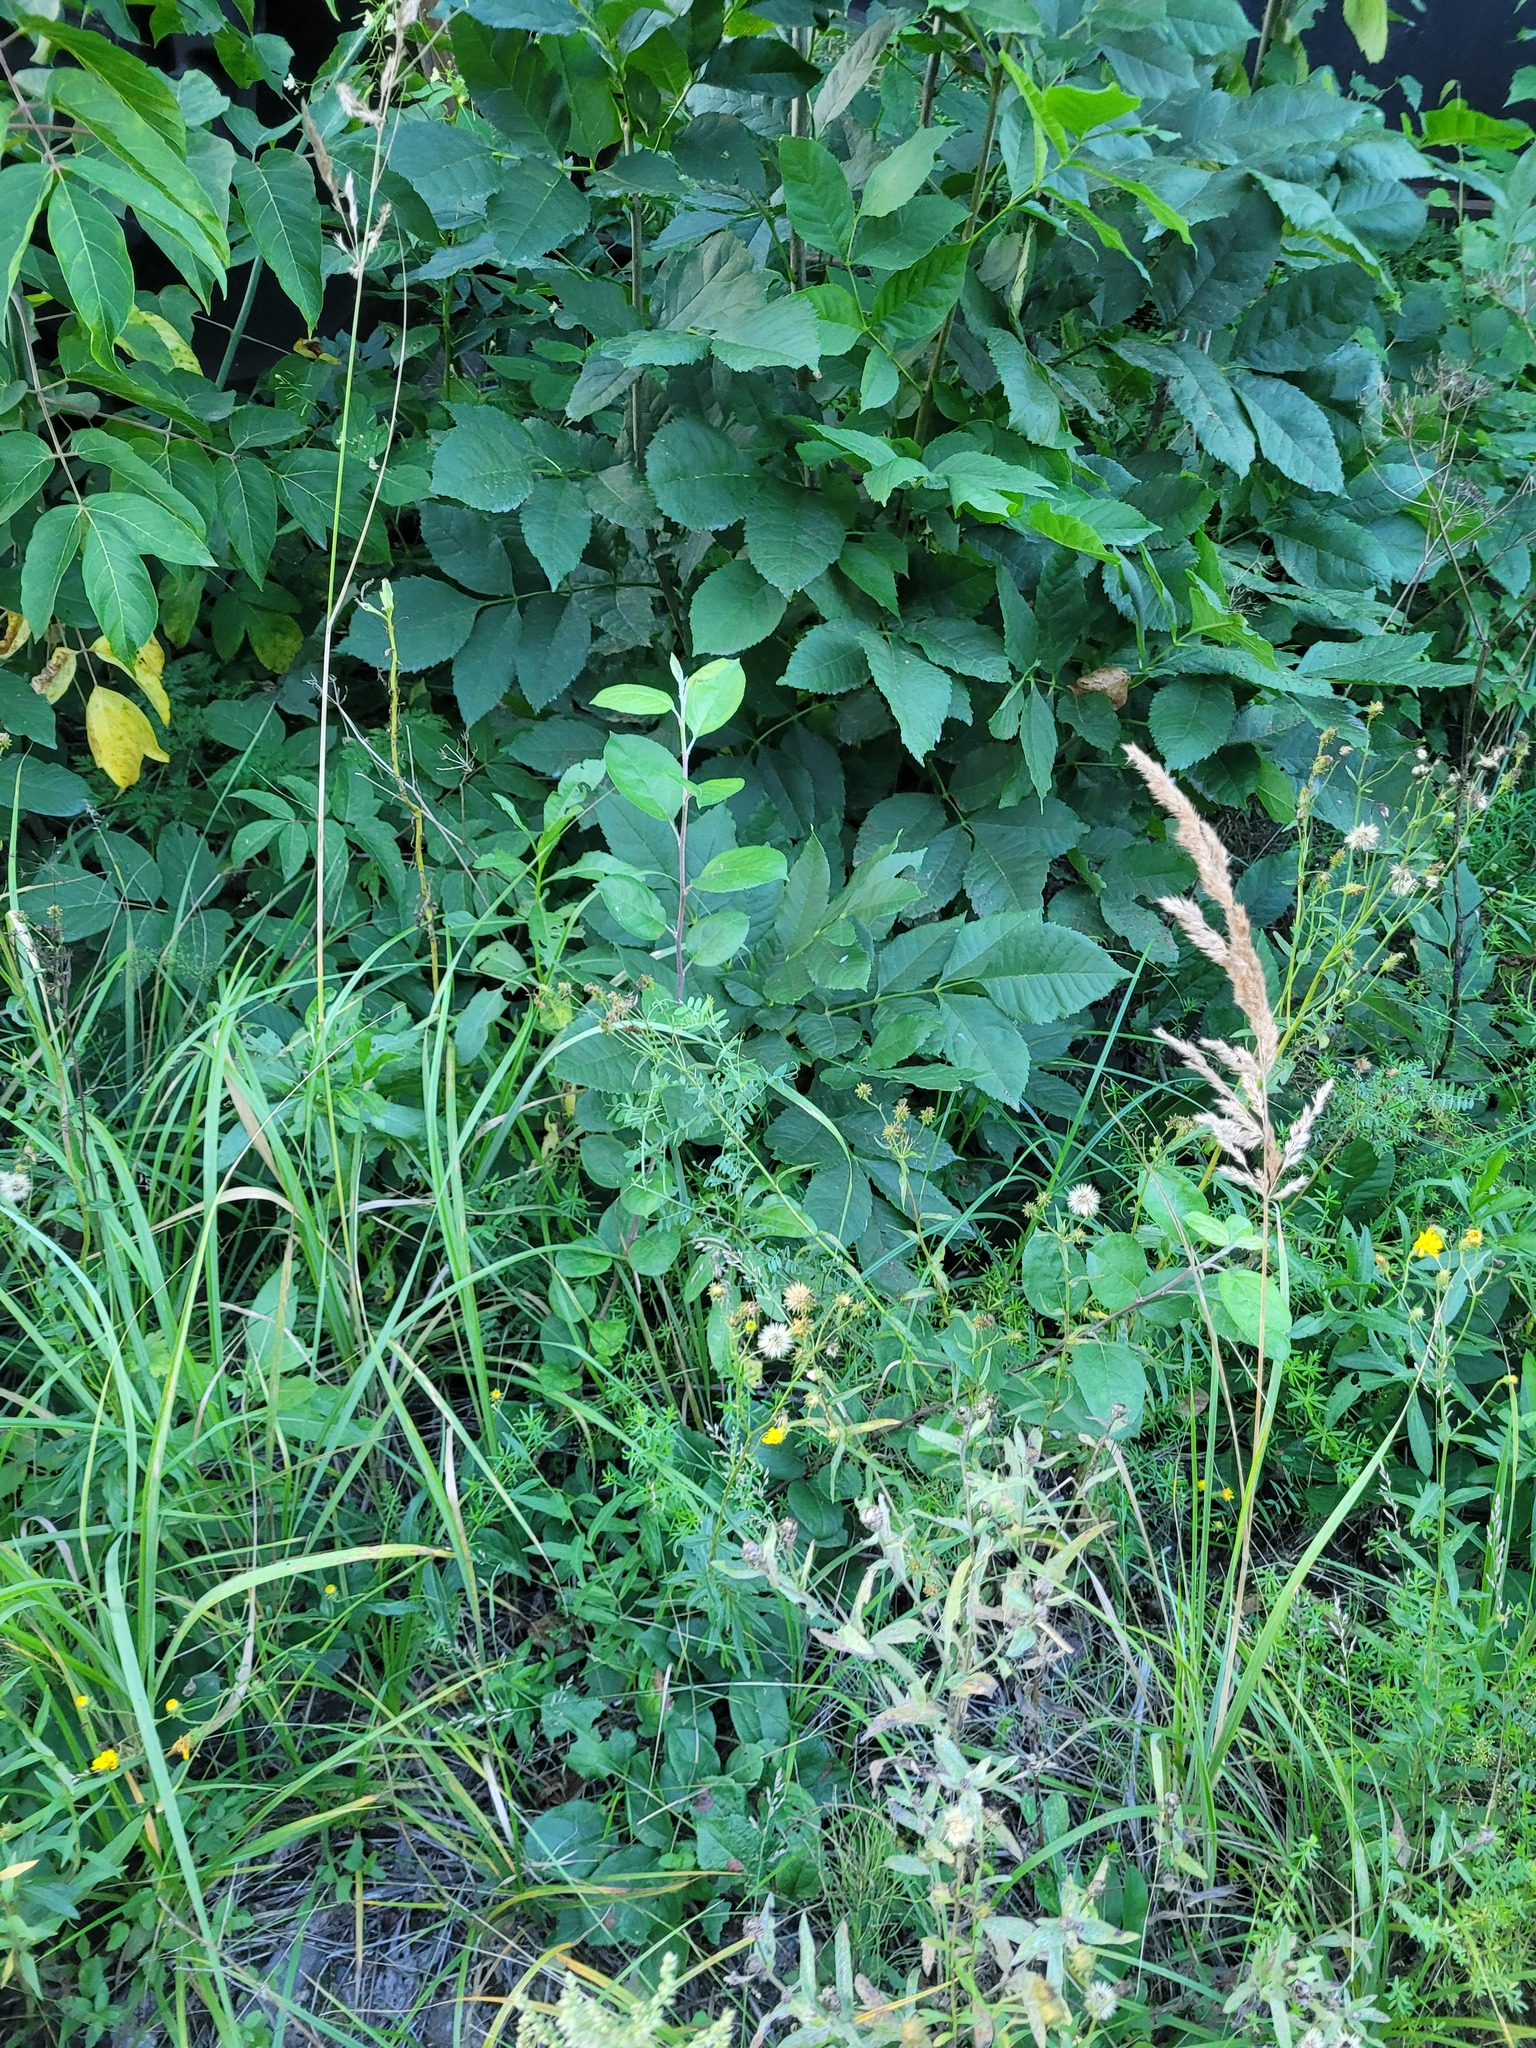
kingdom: Plantae
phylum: Tracheophyta
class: Magnoliopsida
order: Rosales
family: Rosaceae
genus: Malus
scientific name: Malus domestica
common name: Apple
